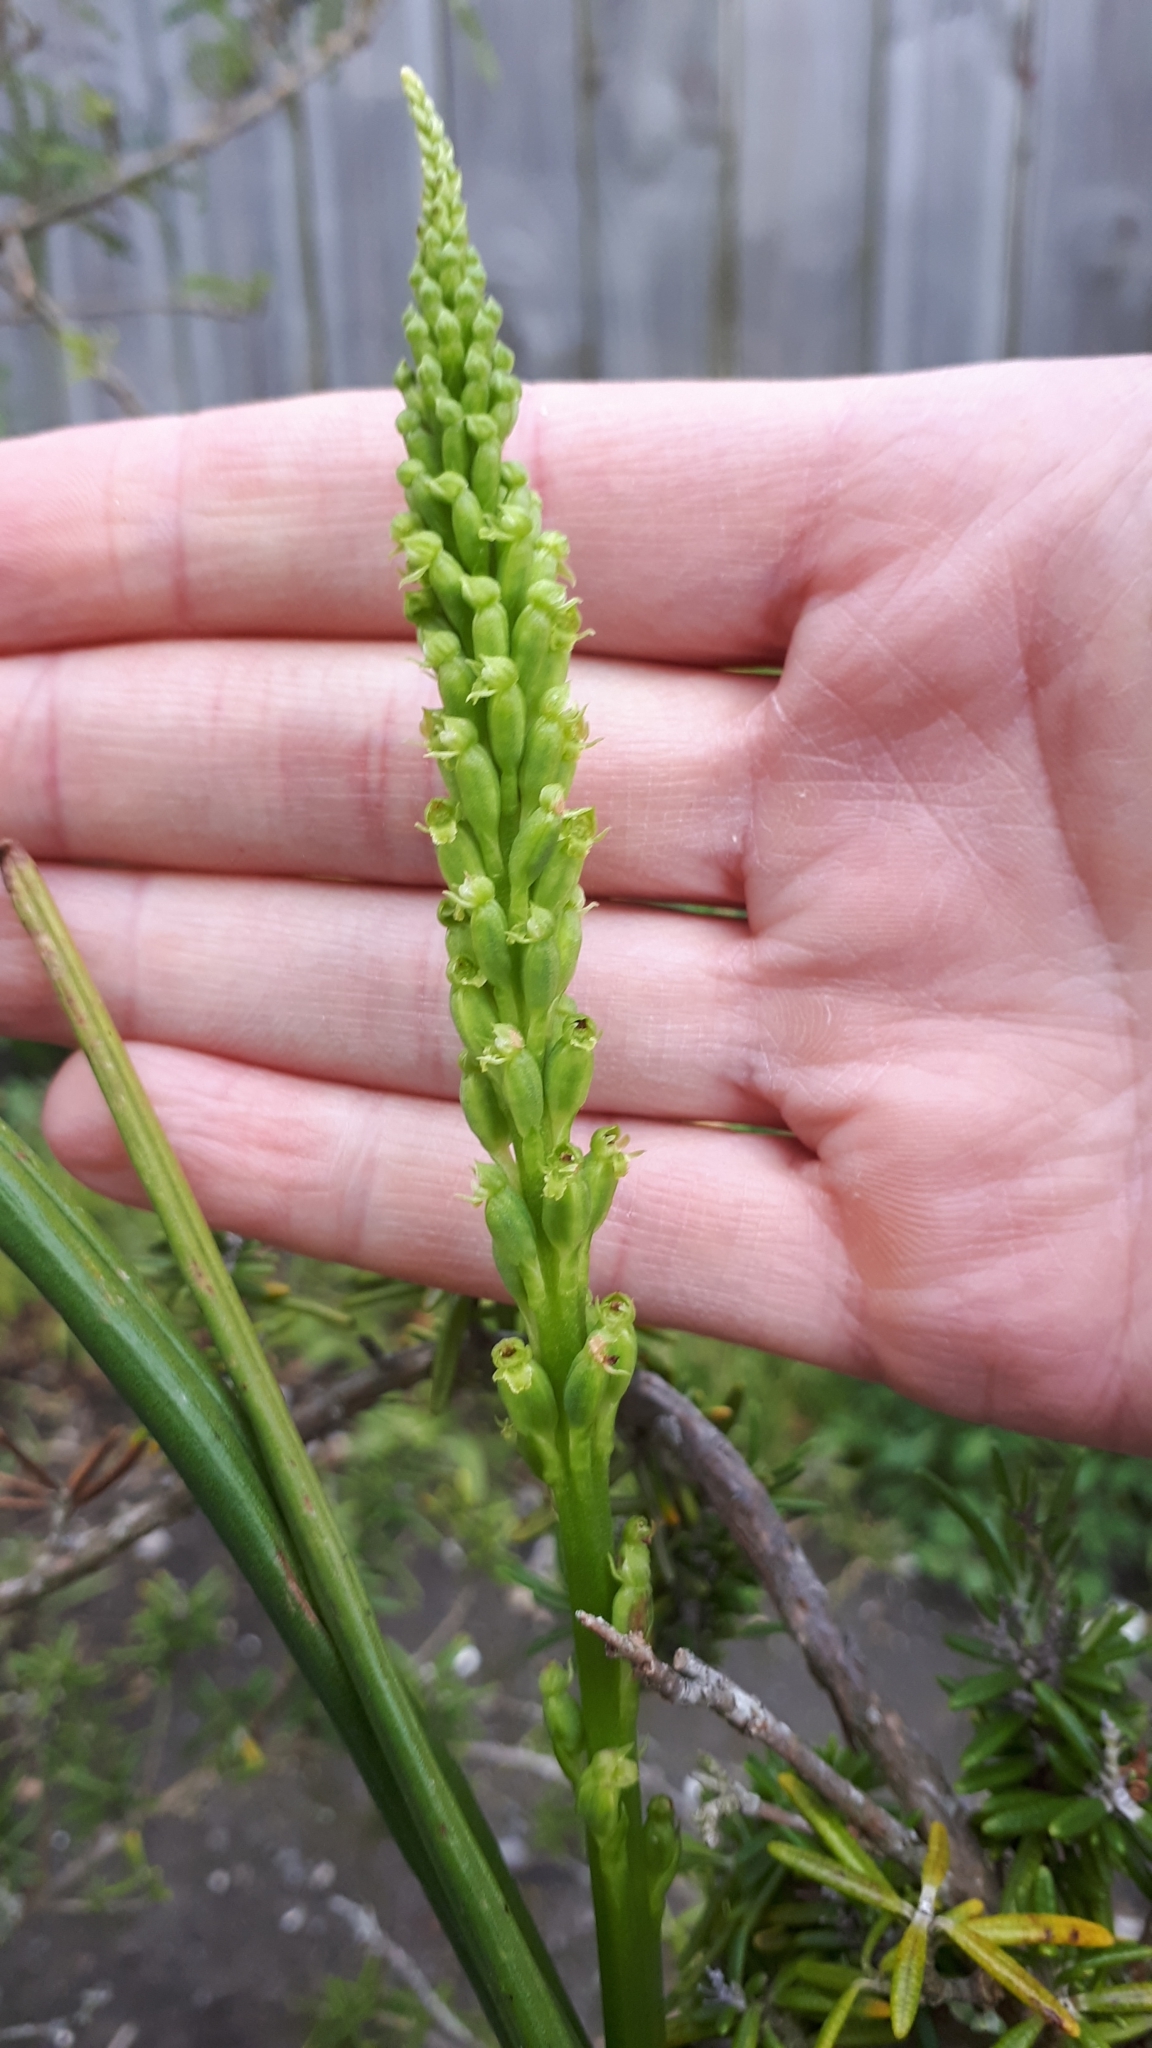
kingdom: Plantae
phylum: Tracheophyta
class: Liliopsida
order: Asparagales
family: Orchidaceae
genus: Microtis
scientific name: Microtis unifolia
